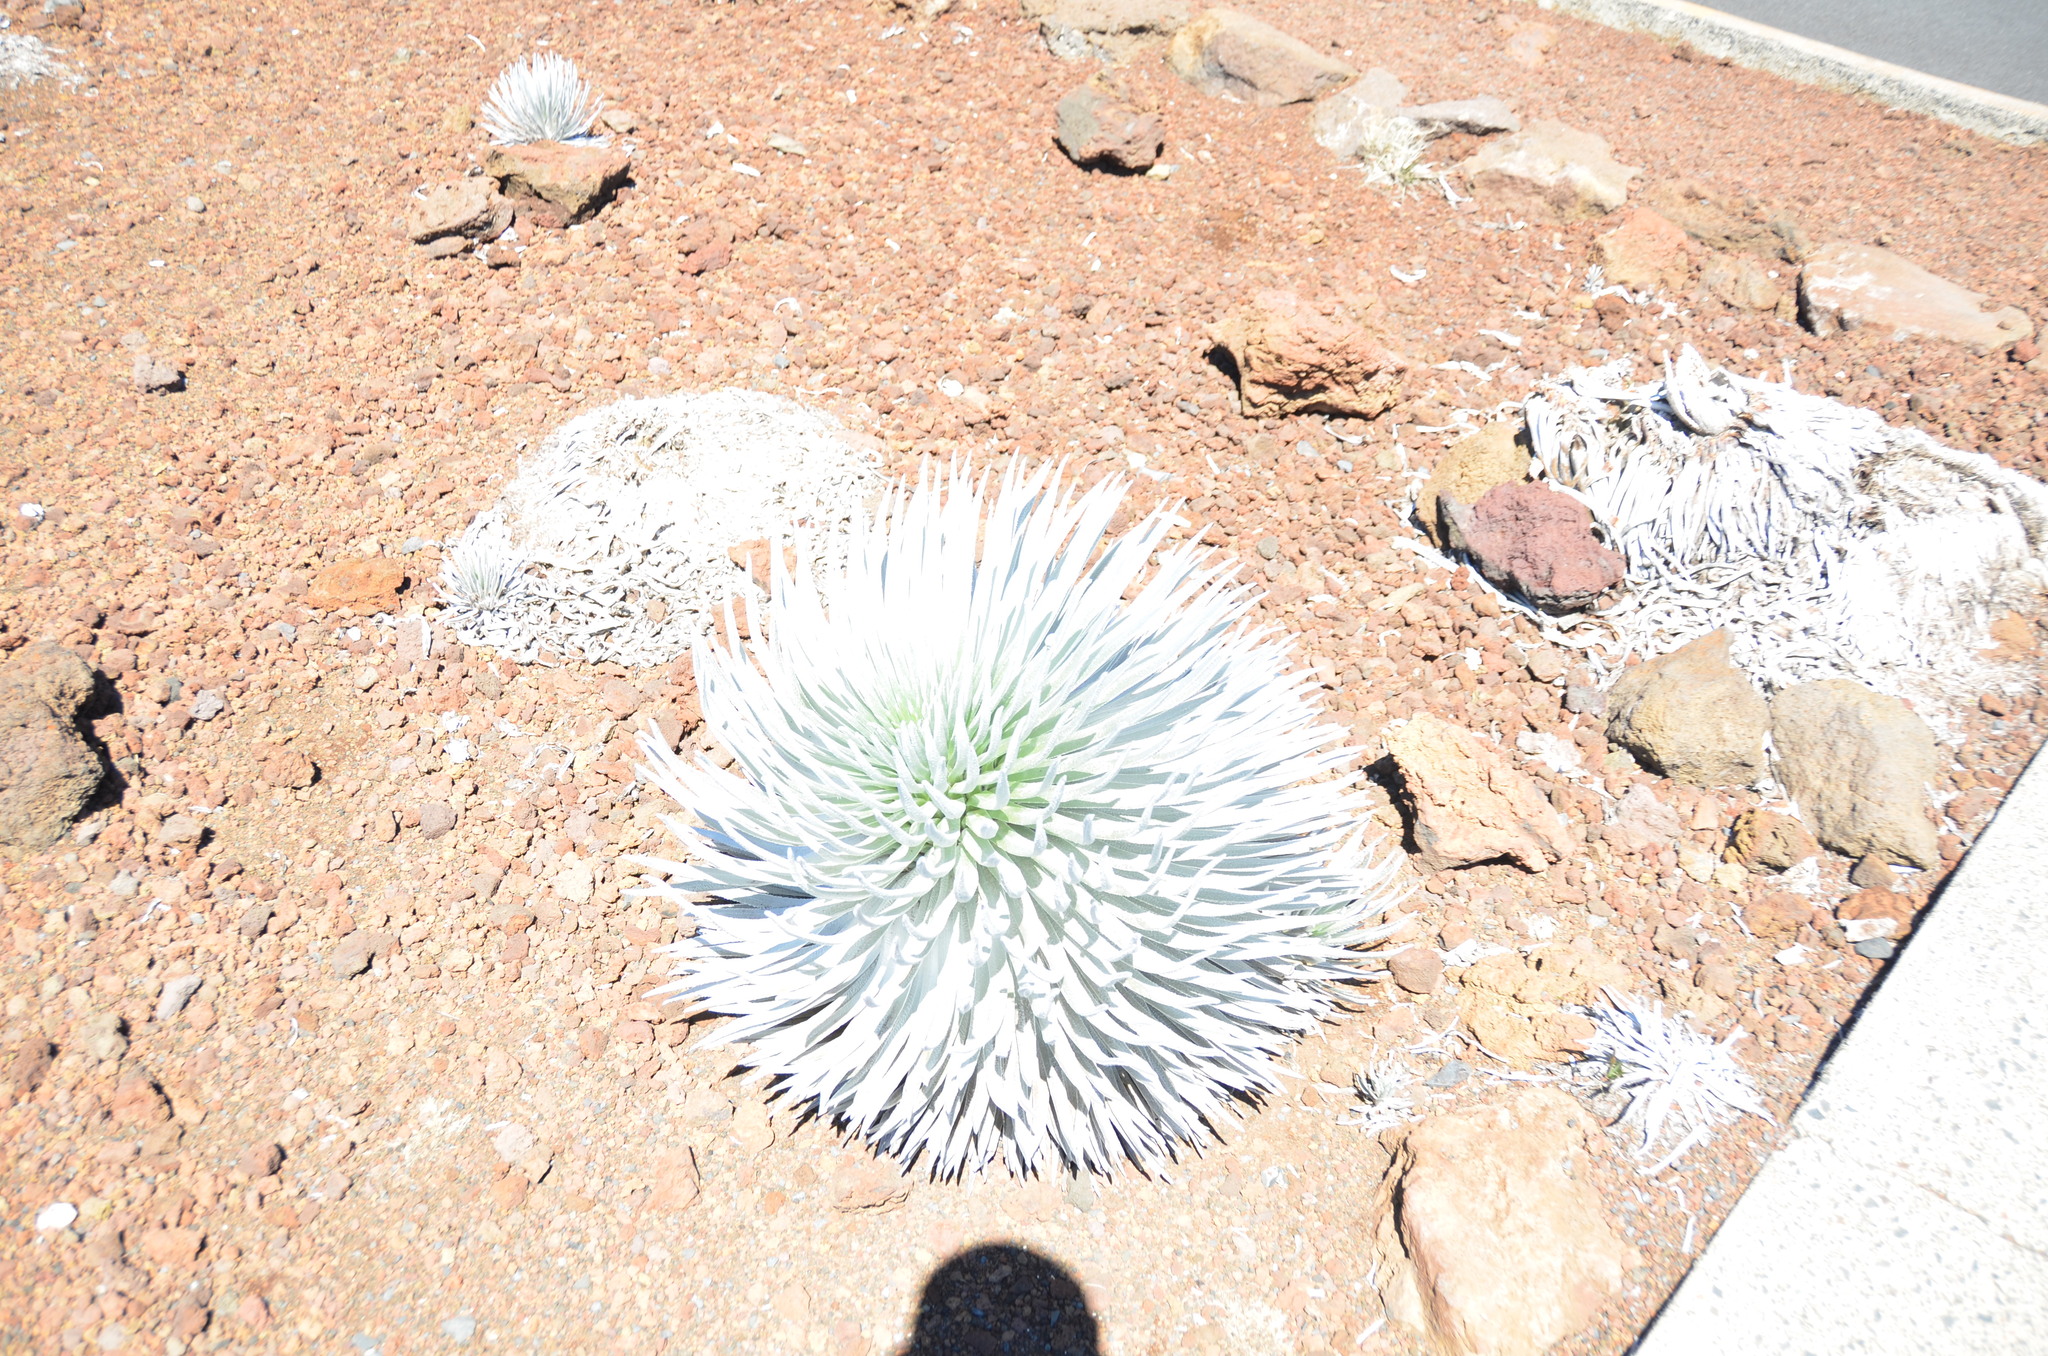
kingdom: Plantae
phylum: Tracheophyta
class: Magnoliopsida
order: Asterales
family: Asteraceae
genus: Argyroxiphium
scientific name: Argyroxiphium sandwicense
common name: Silversword
